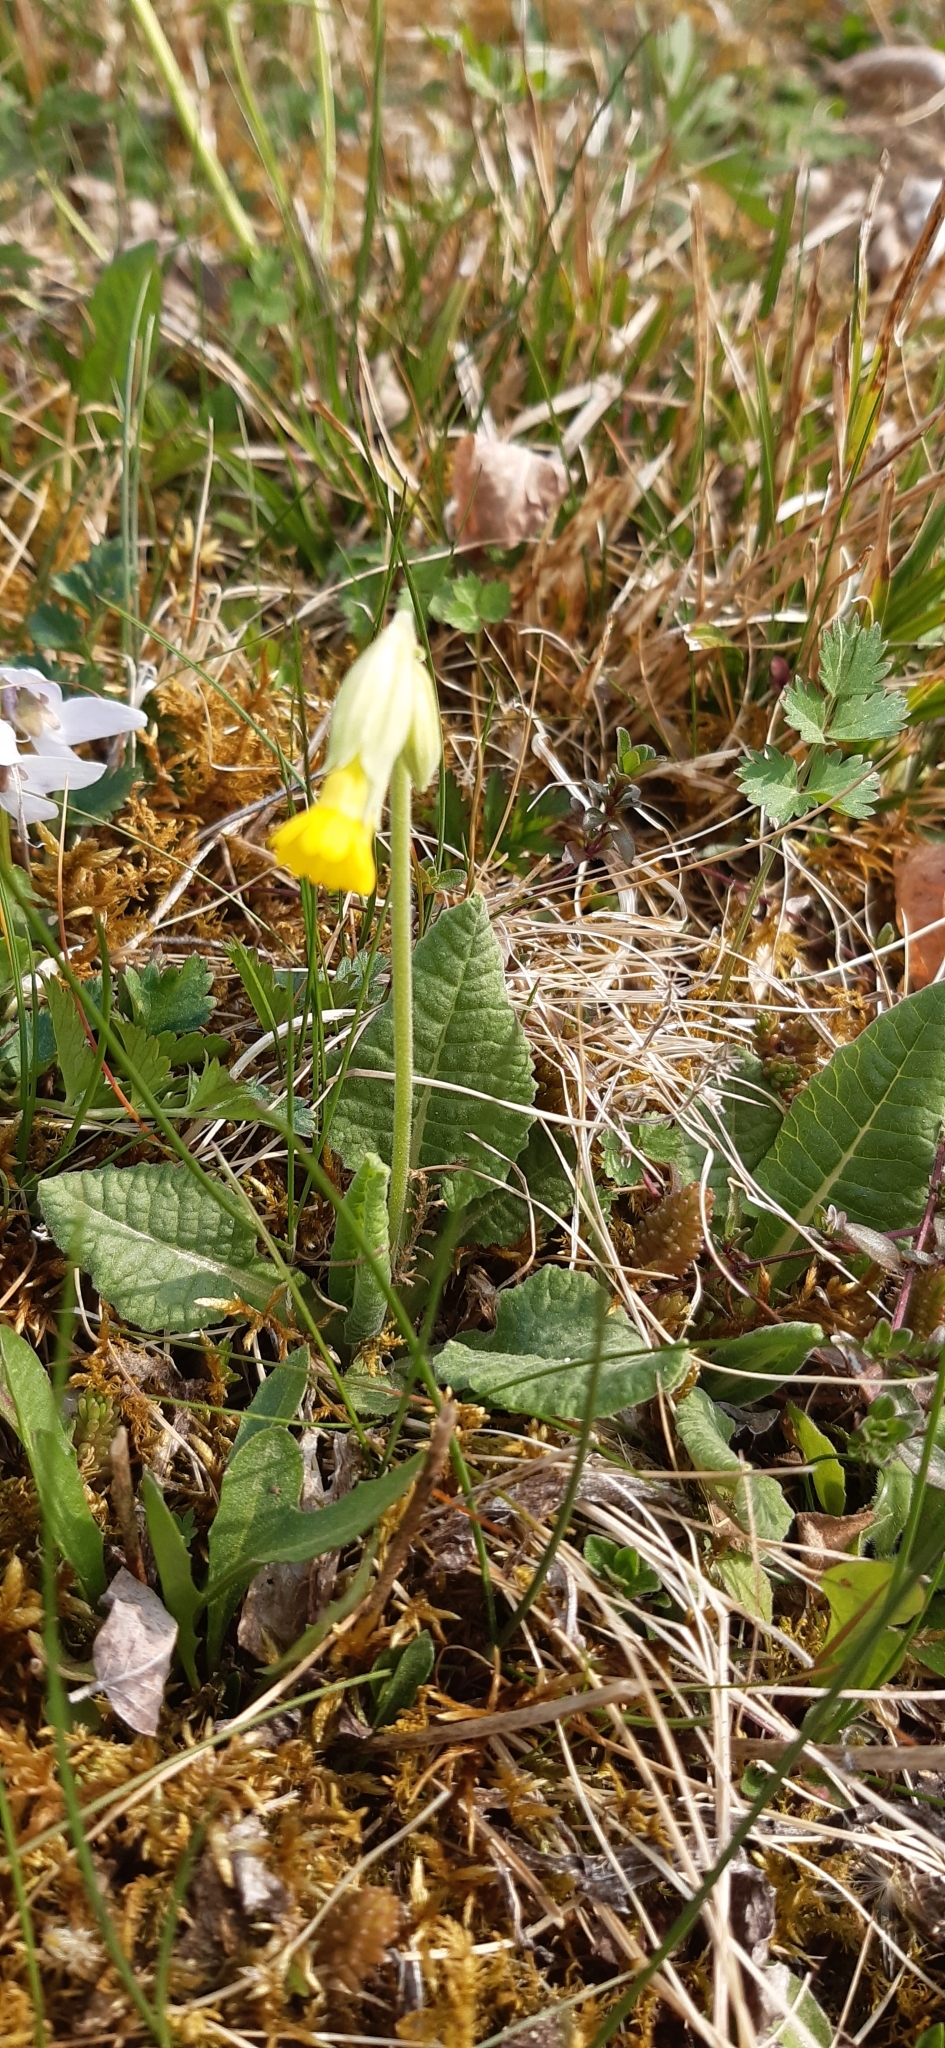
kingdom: Plantae
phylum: Tracheophyta
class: Magnoliopsida
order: Ericales
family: Primulaceae
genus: Primula
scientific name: Primula veris
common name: Cowslip
